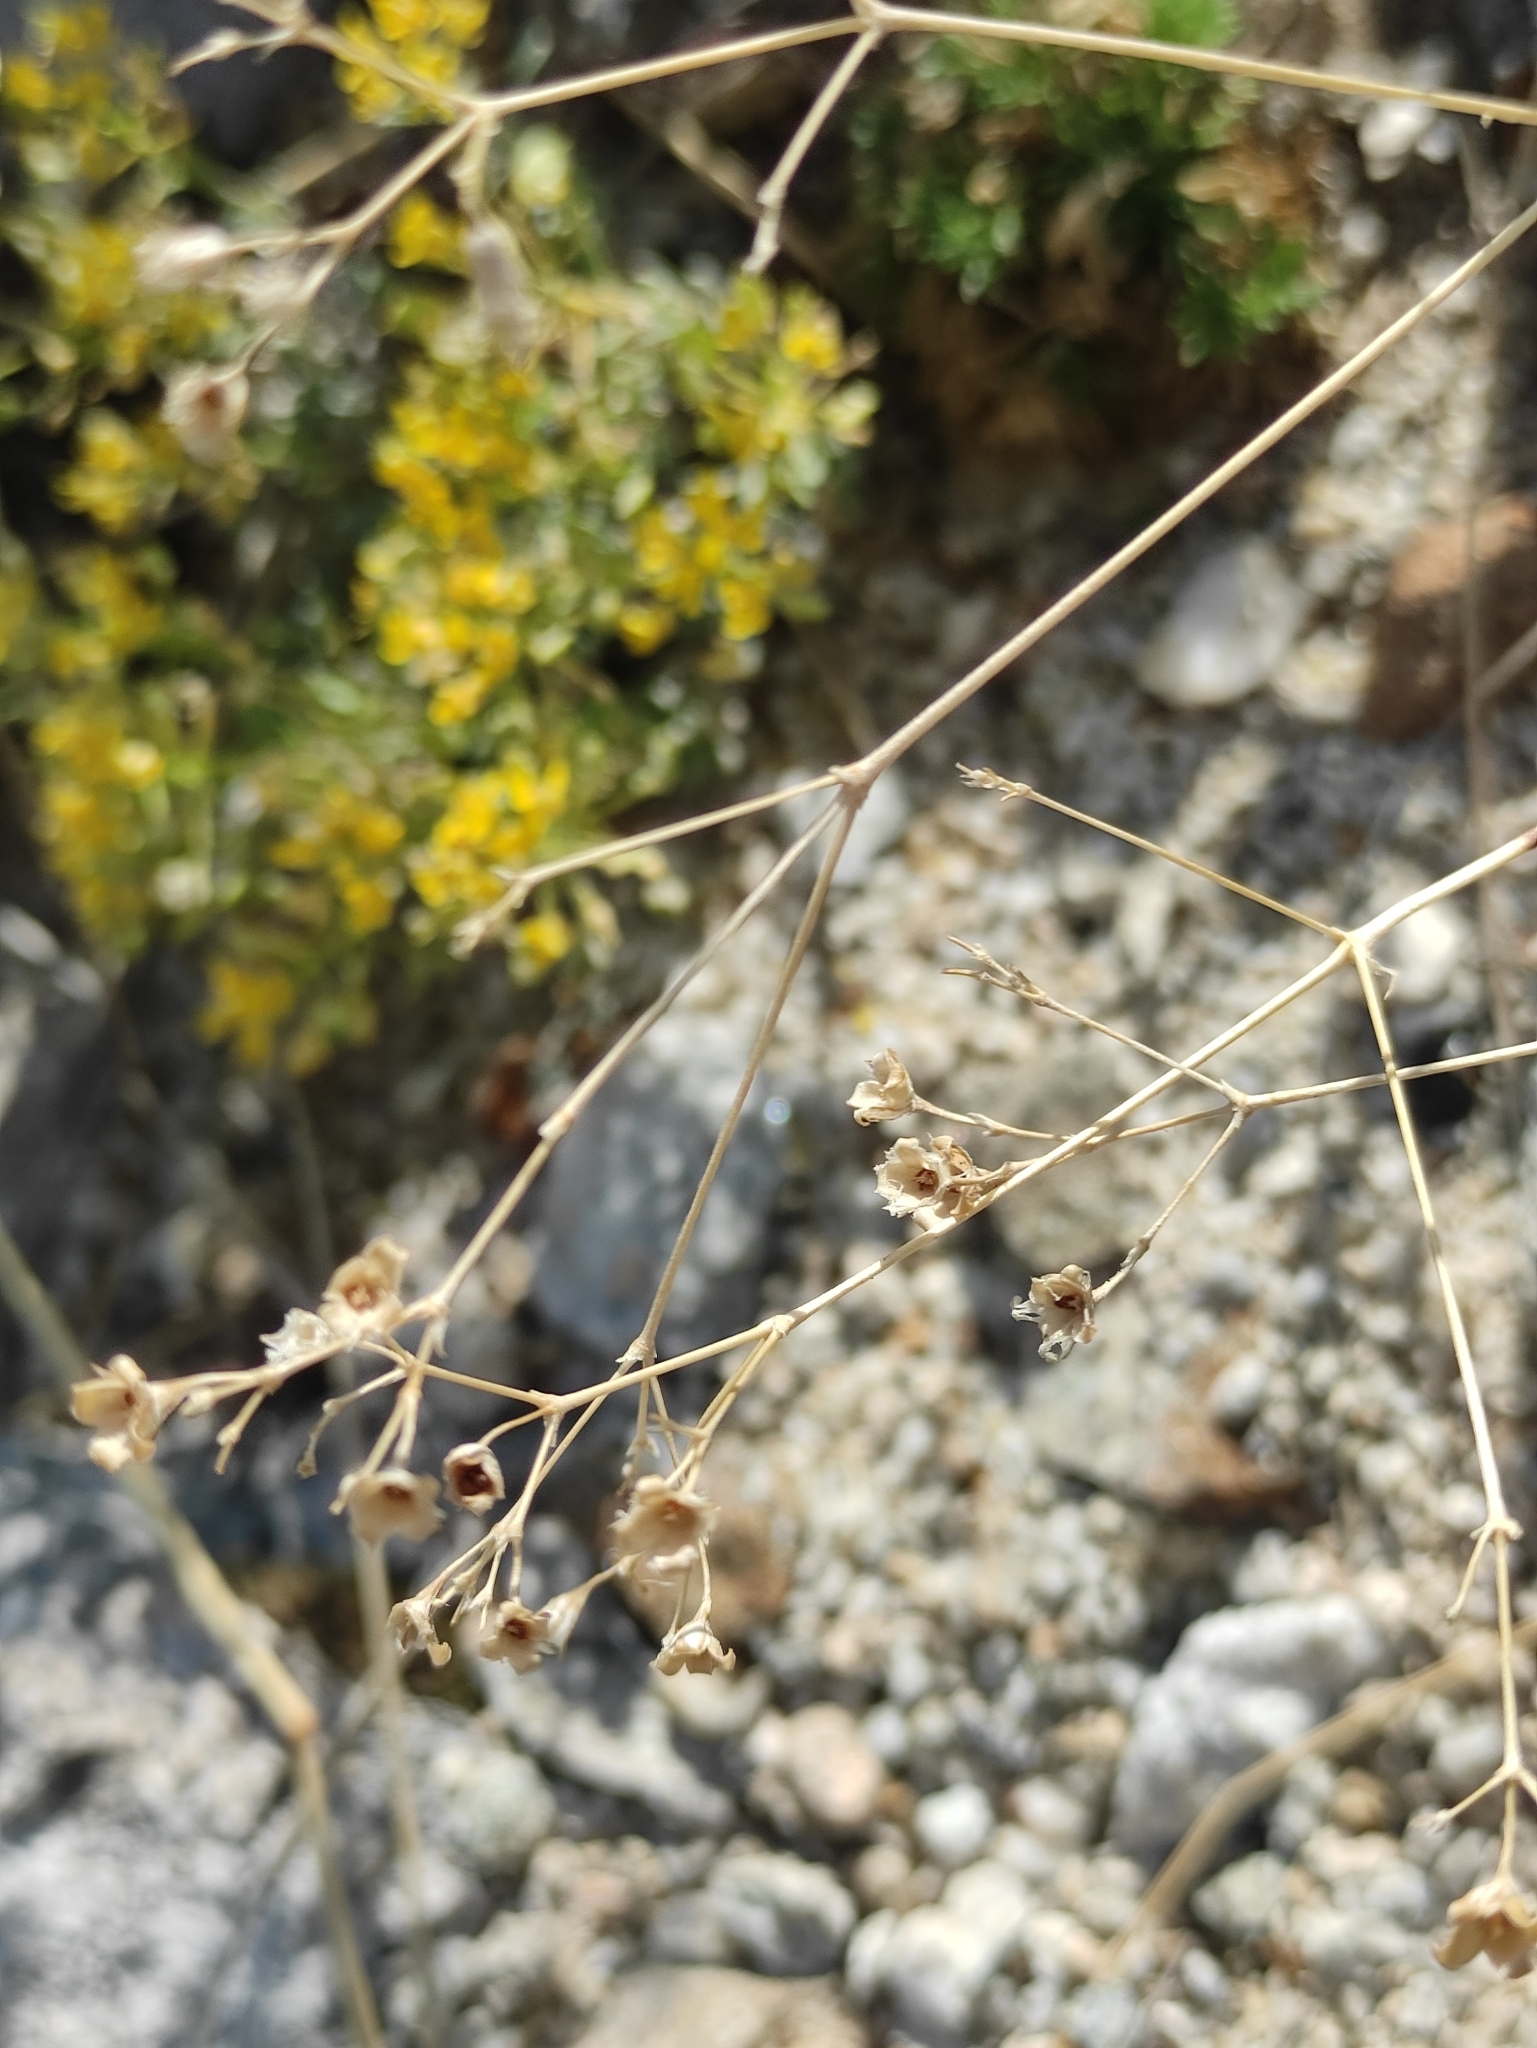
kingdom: Plantae
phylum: Tracheophyta
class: Magnoliopsida
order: Caryophyllales
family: Caryophyllaceae
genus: Gypsophila
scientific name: Gypsophila patrinii
